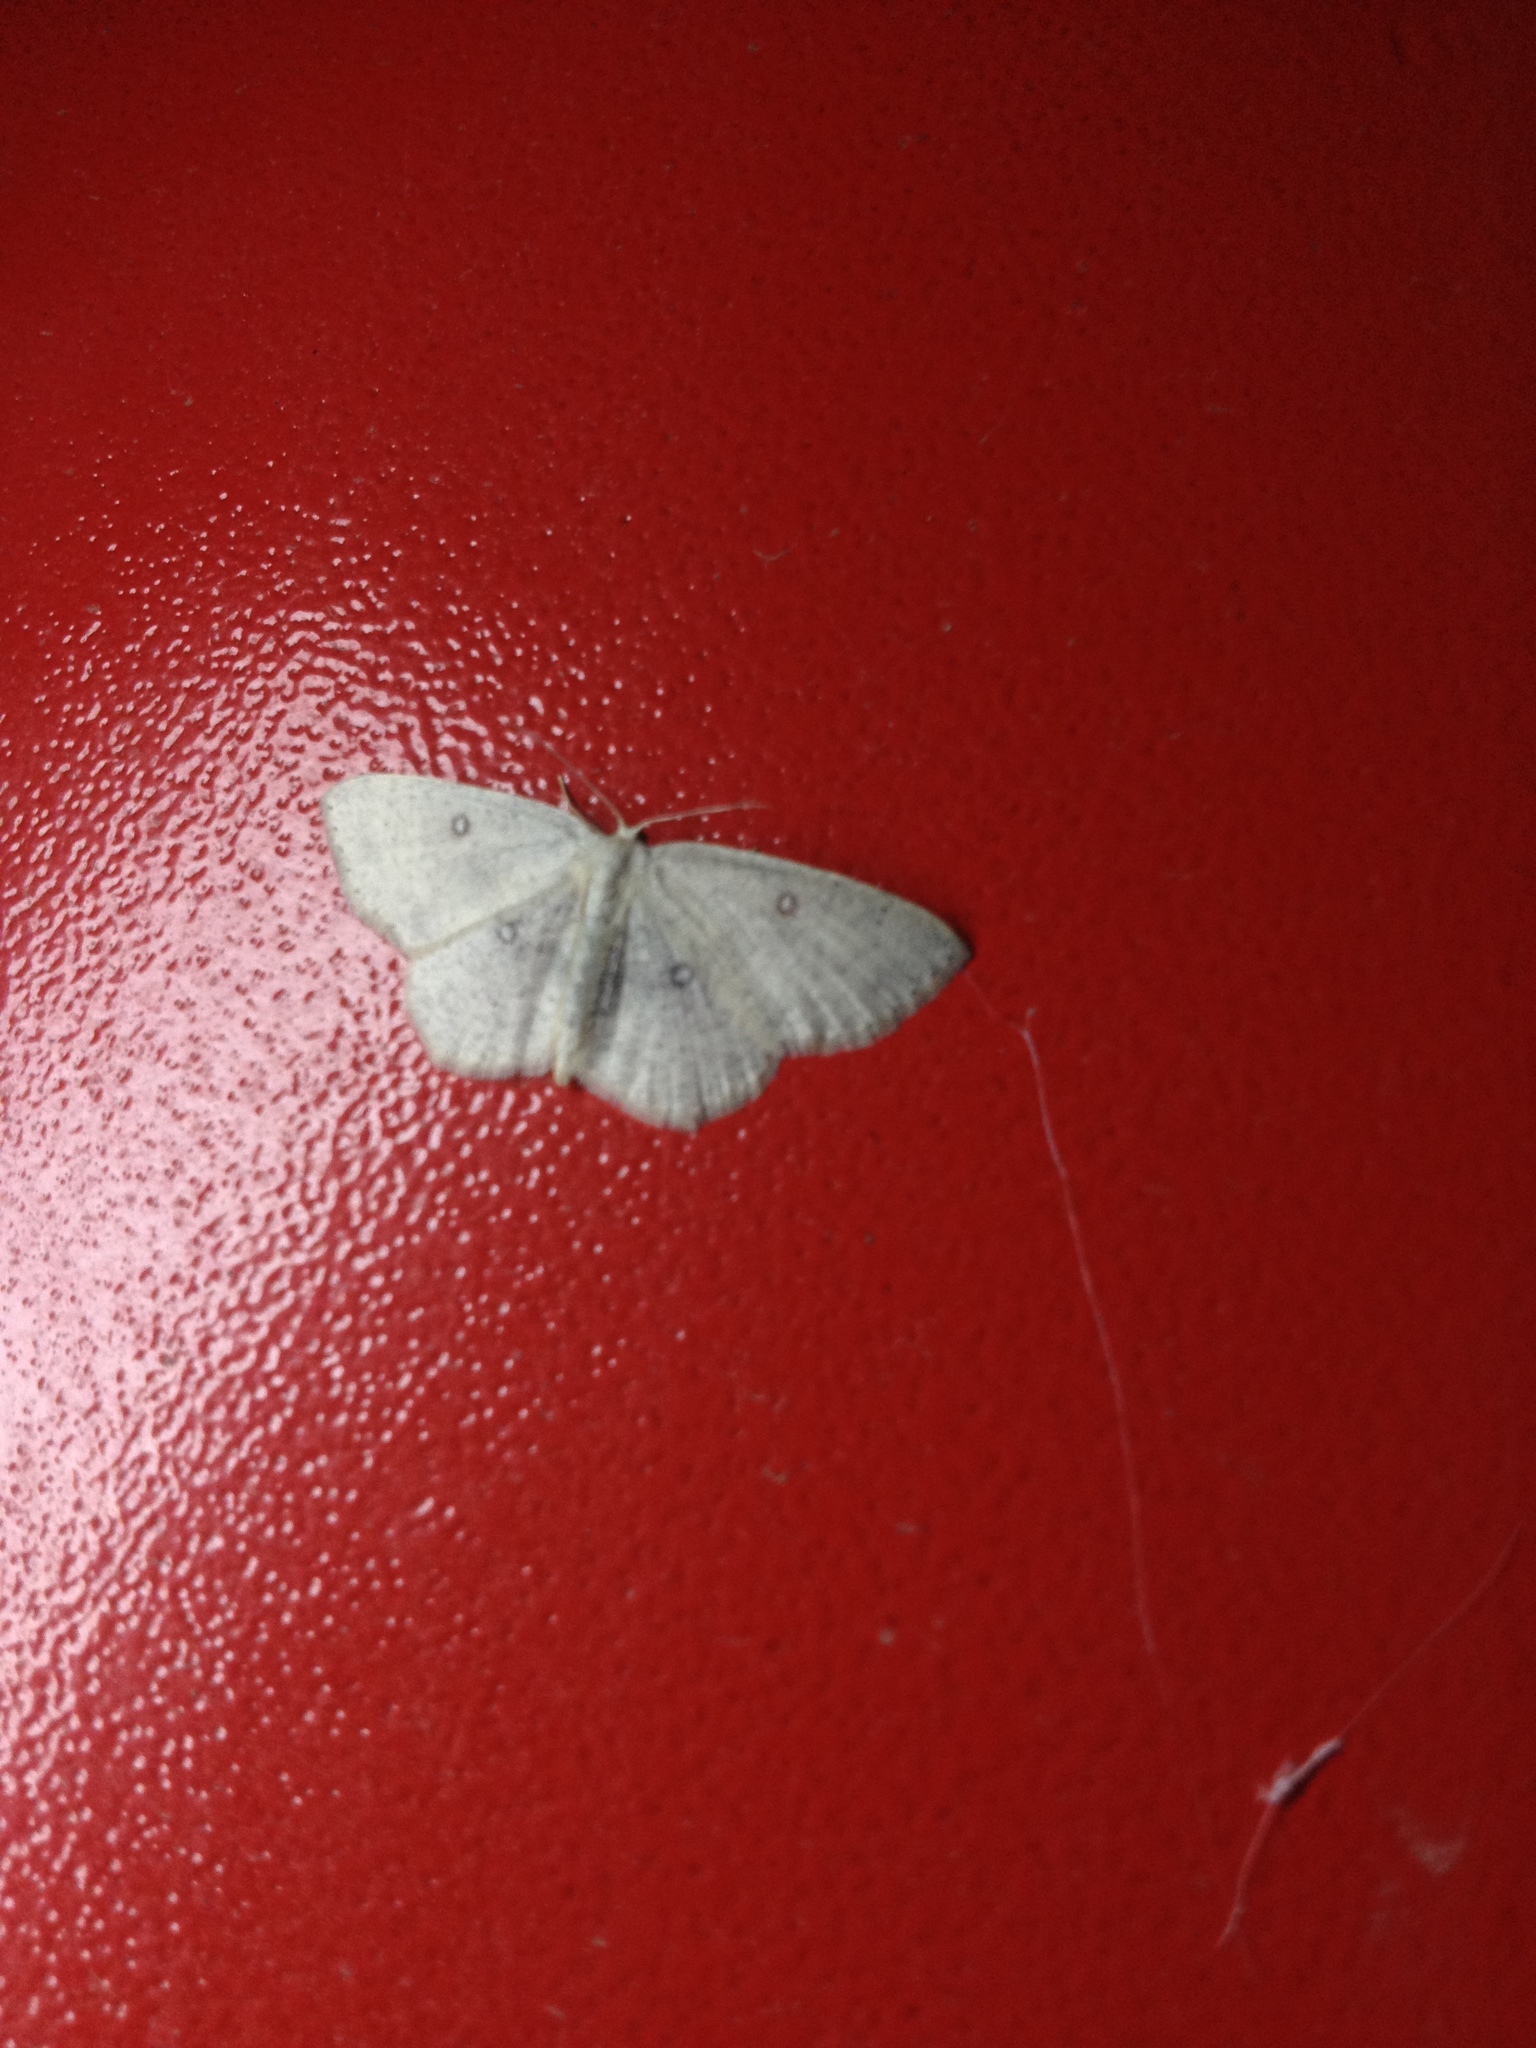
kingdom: Animalia
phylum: Arthropoda
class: Insecta
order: Lepidoptera
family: Geometridae
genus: Cyclophora
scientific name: Cyclophora albipunctata
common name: Birch mocha
